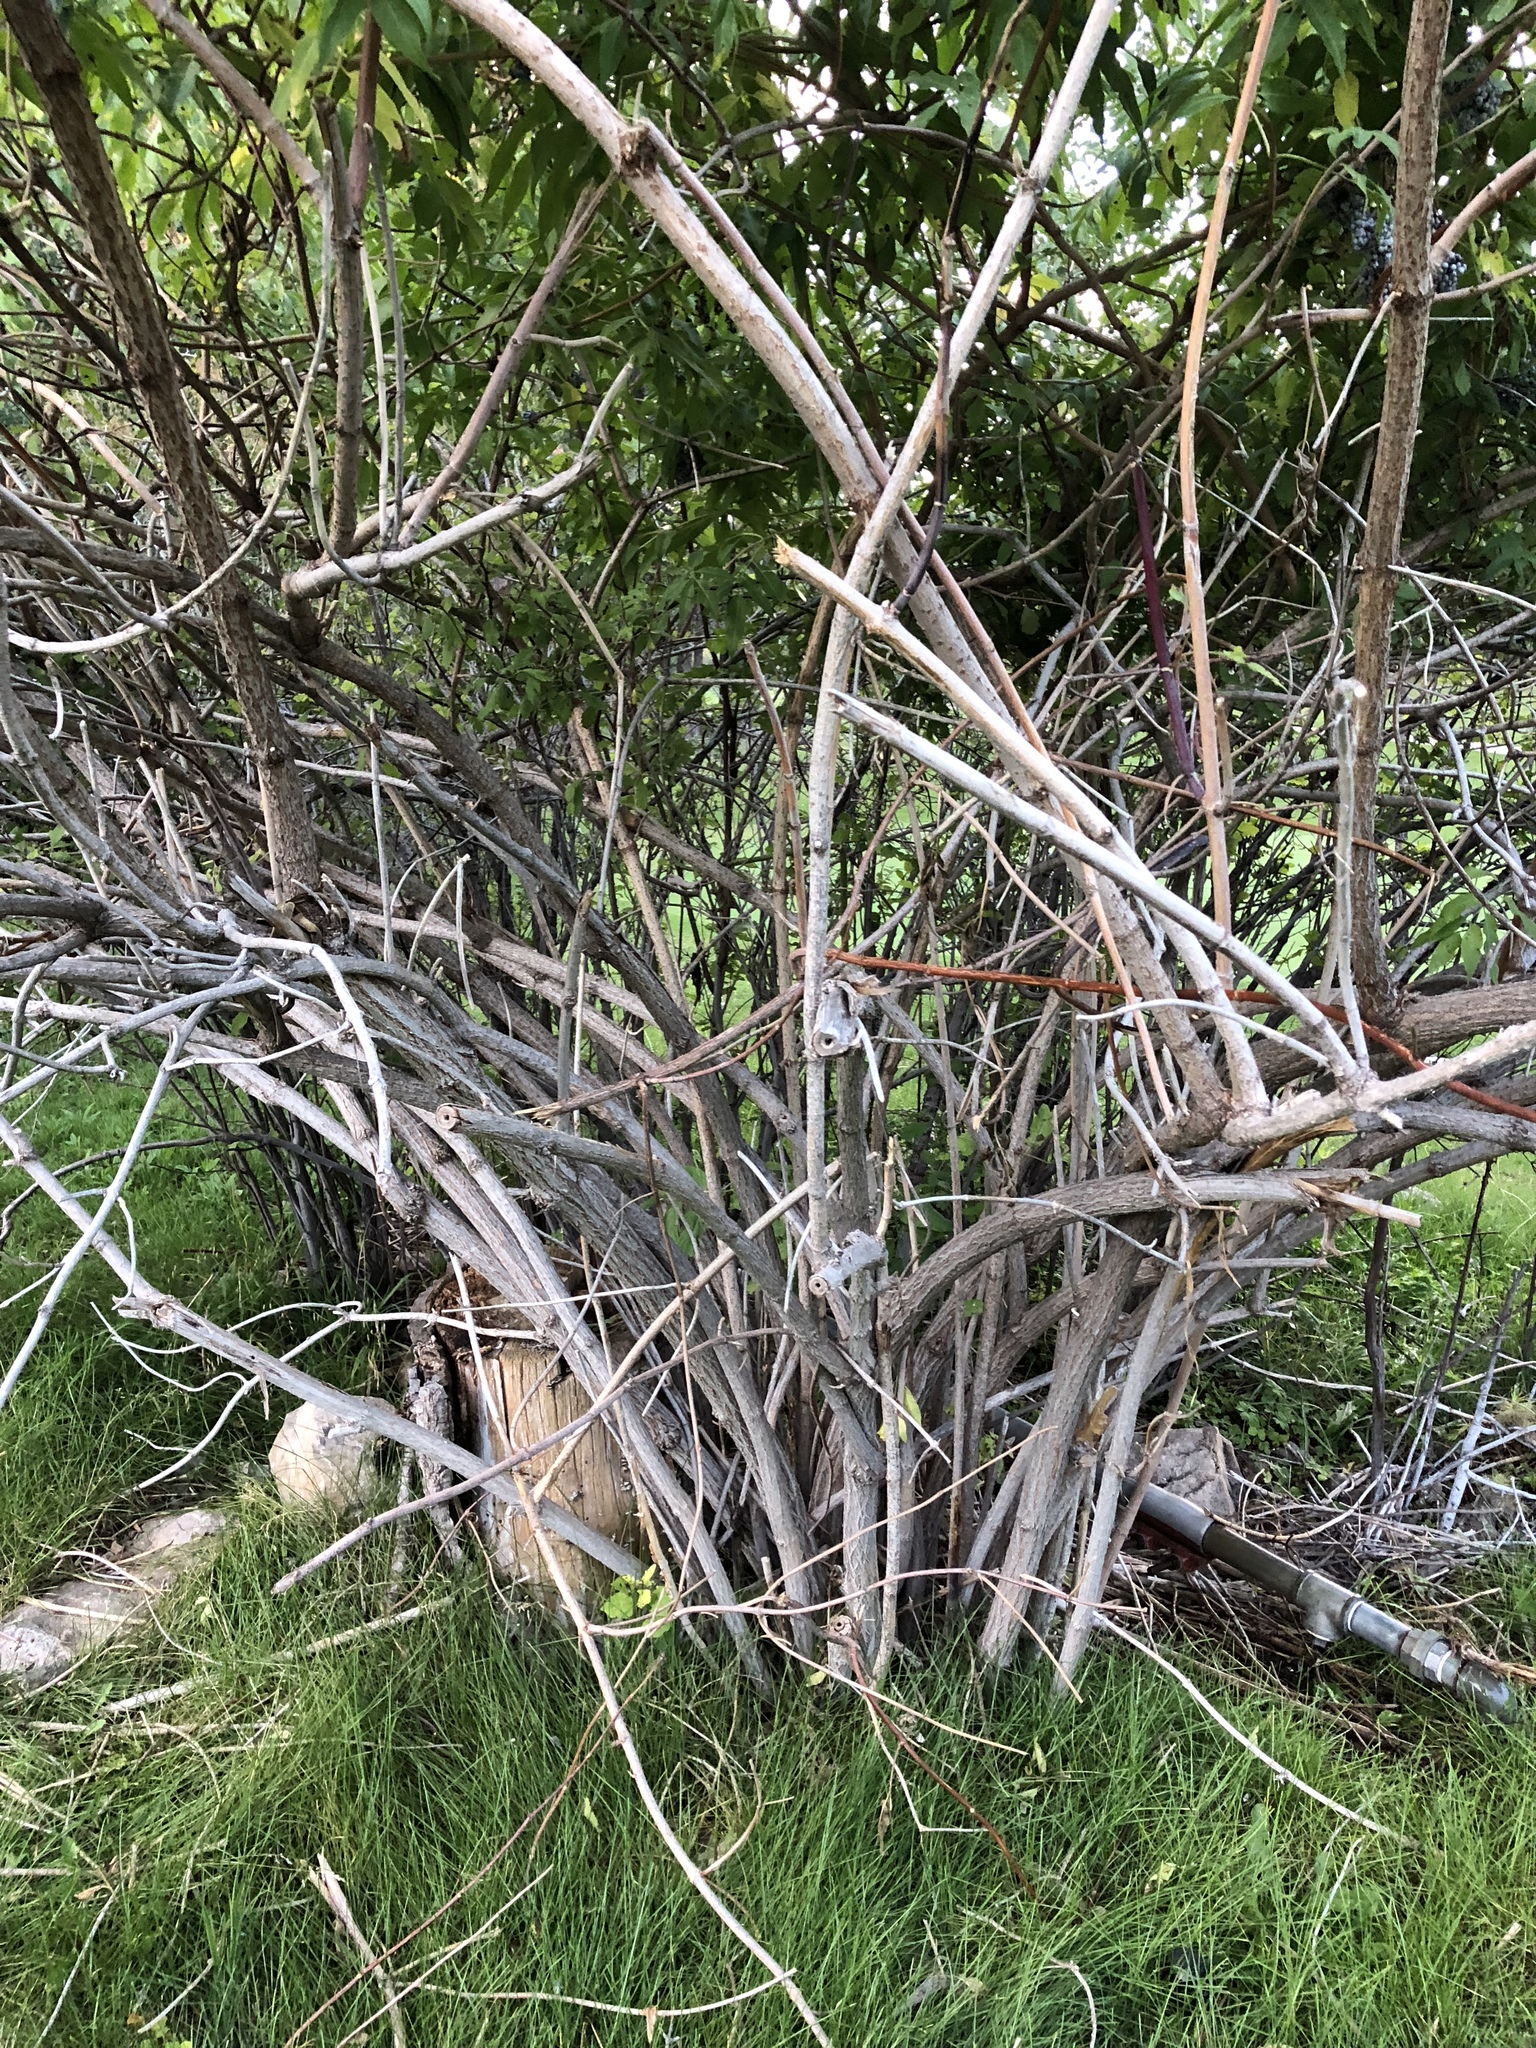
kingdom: Plantae
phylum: Tracheophyta
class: Magnoliopsida
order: Dipsacales
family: Viburnaceae
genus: Sambucus
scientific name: Sambucus cerulea
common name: Blue elder
